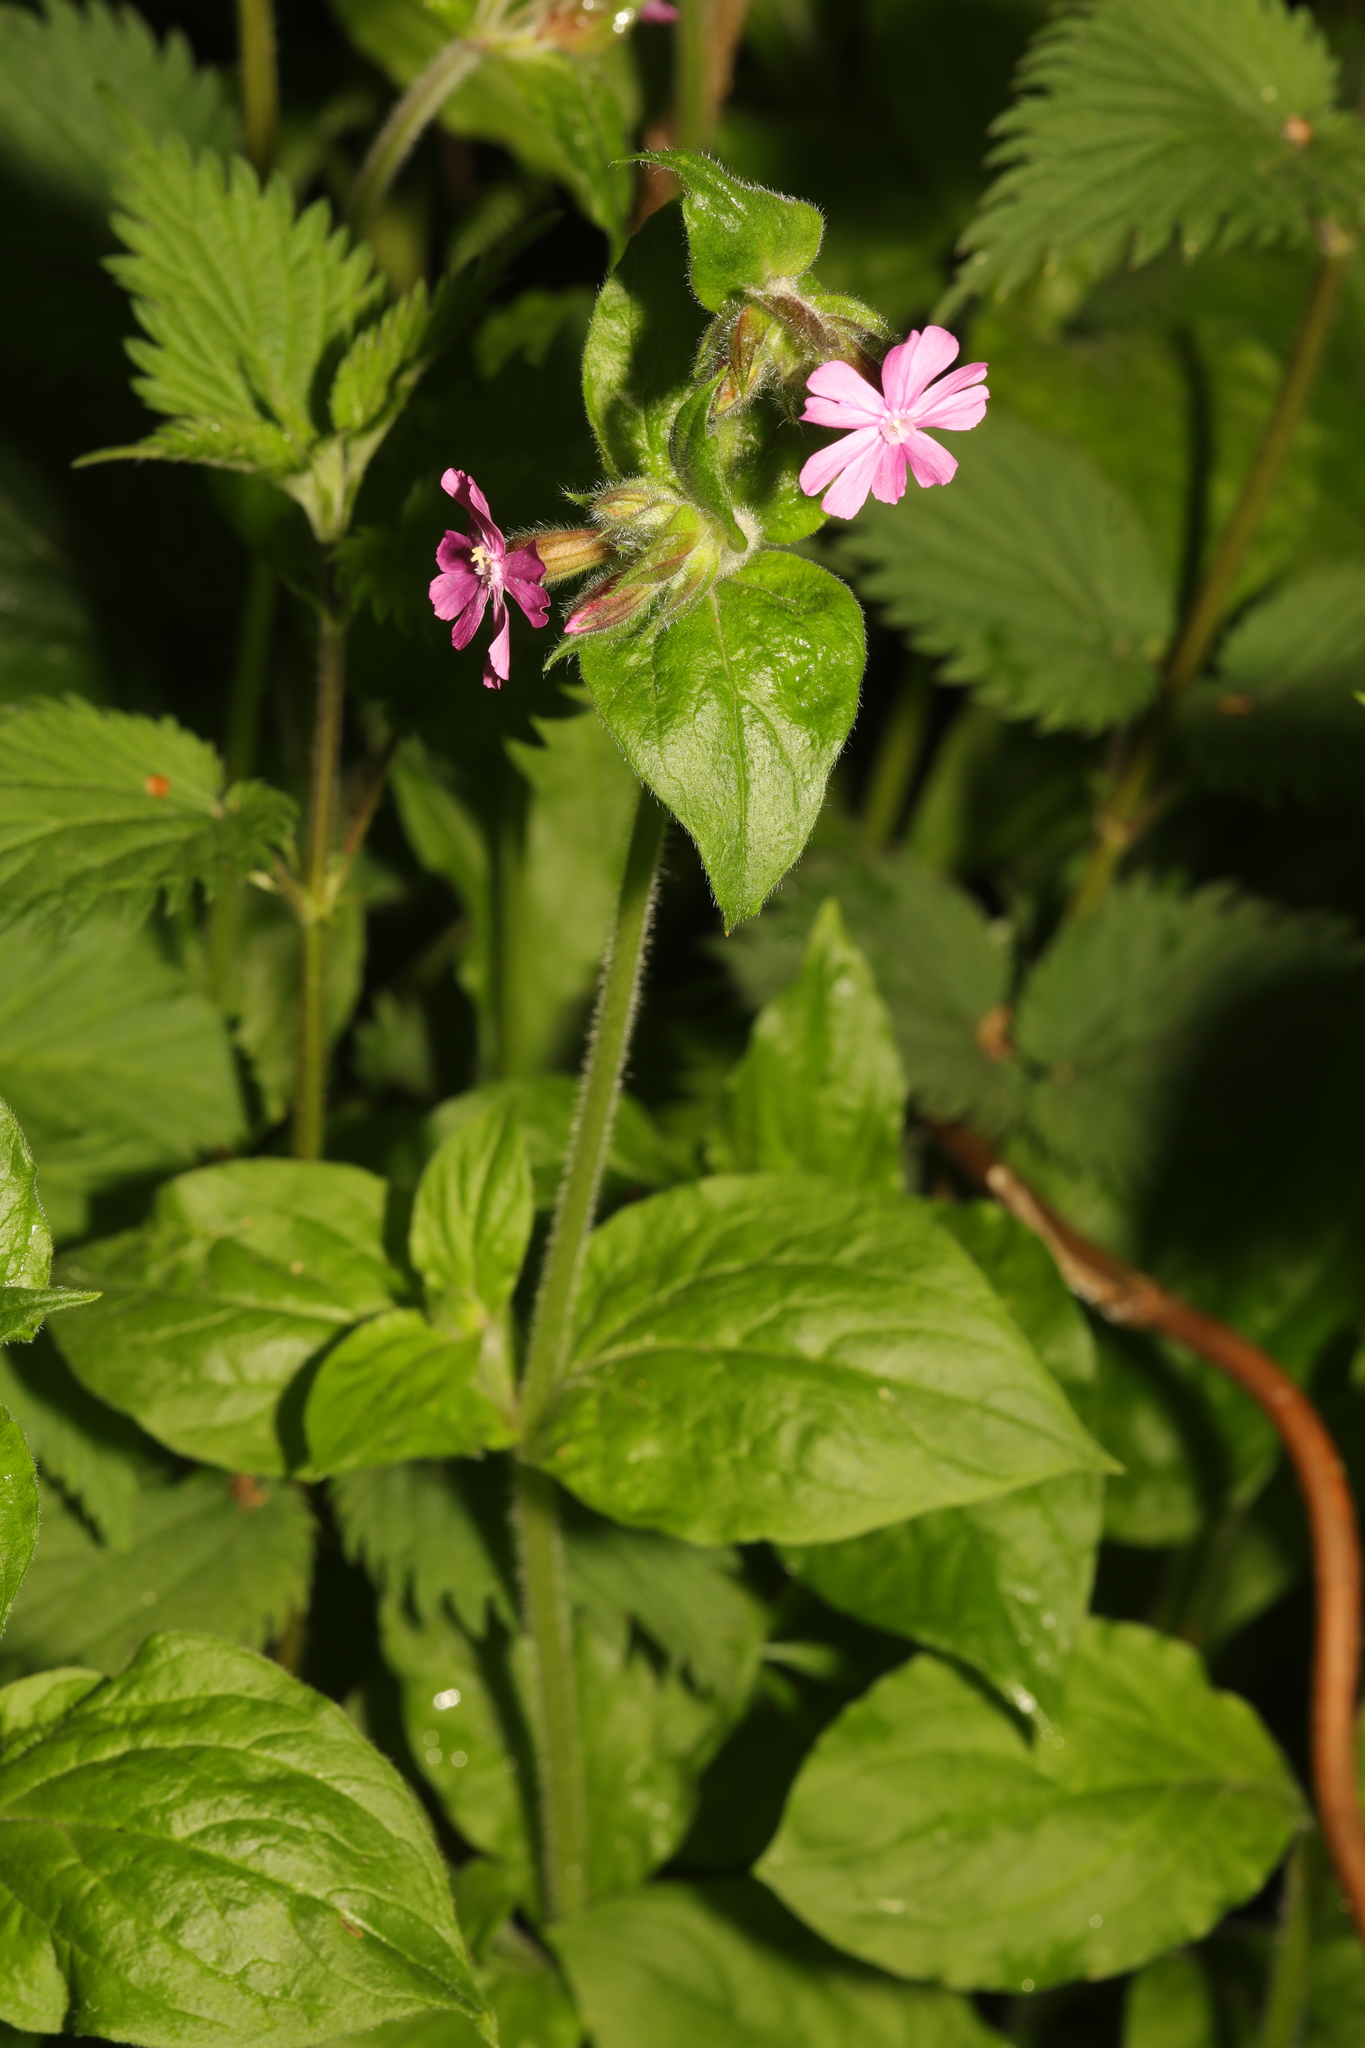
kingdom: Plantae
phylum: Tracheophyta
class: Magnoliopsida
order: Caryophyllales
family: Caryophyllaceae
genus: Silene
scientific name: Silene dioica
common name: Red campion
